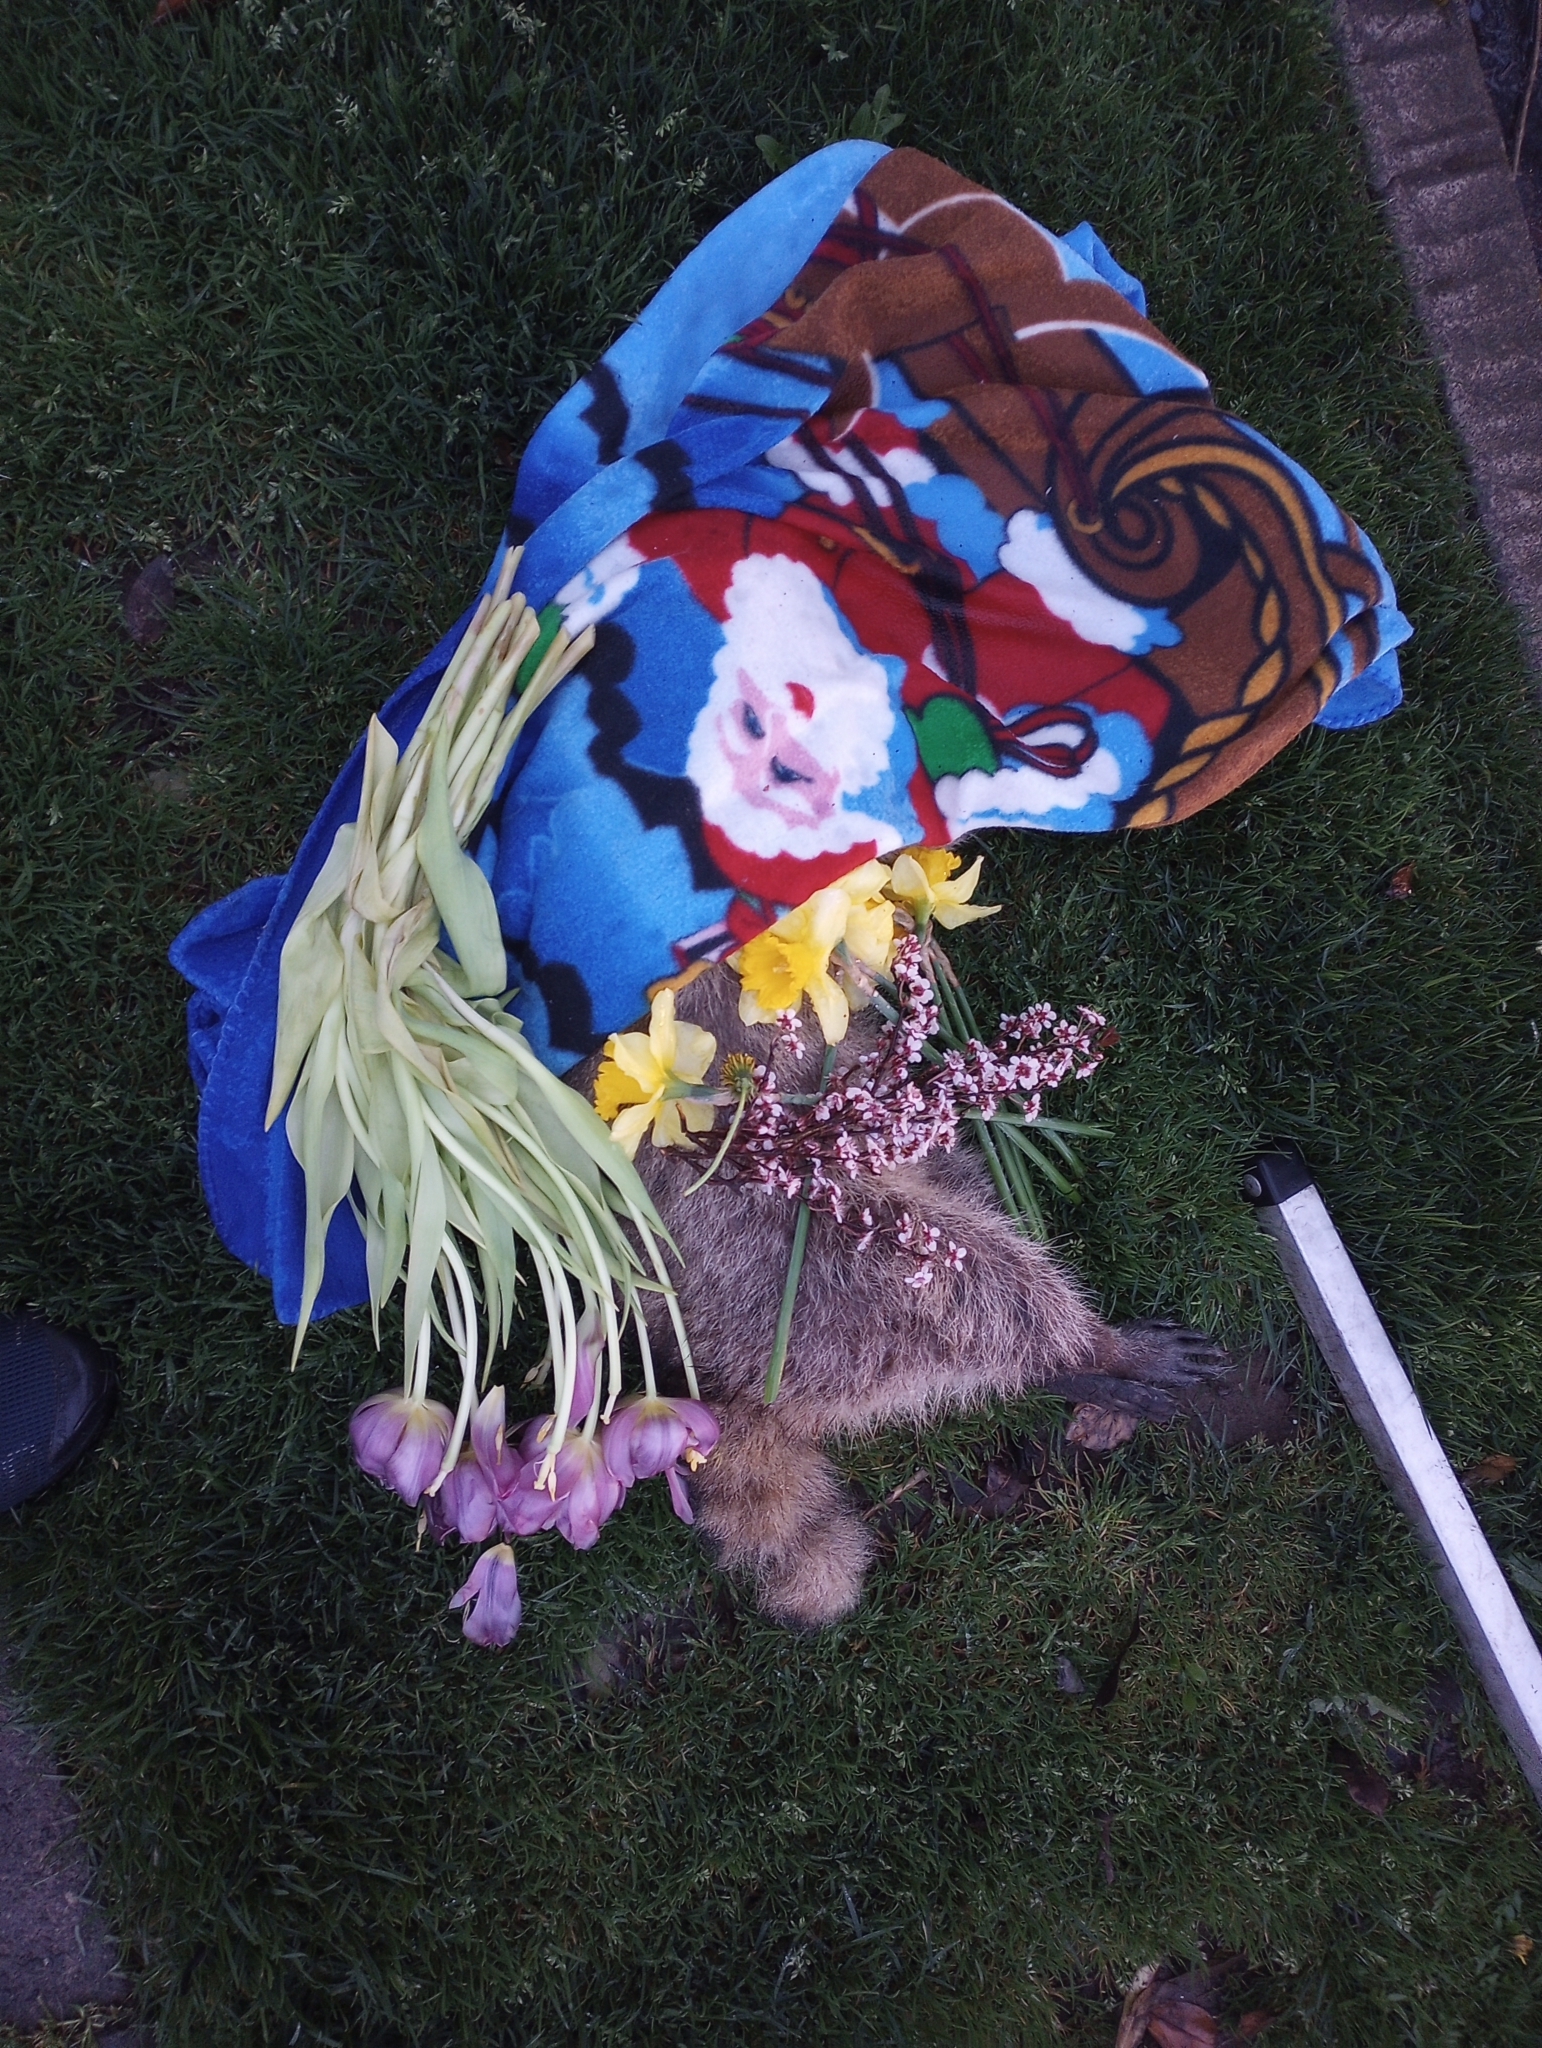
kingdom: Animalia
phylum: Chordata
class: Mammalia
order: Carnivora
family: Procyonidae
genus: Procyon
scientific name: Procyon lotor
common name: Raccoon
